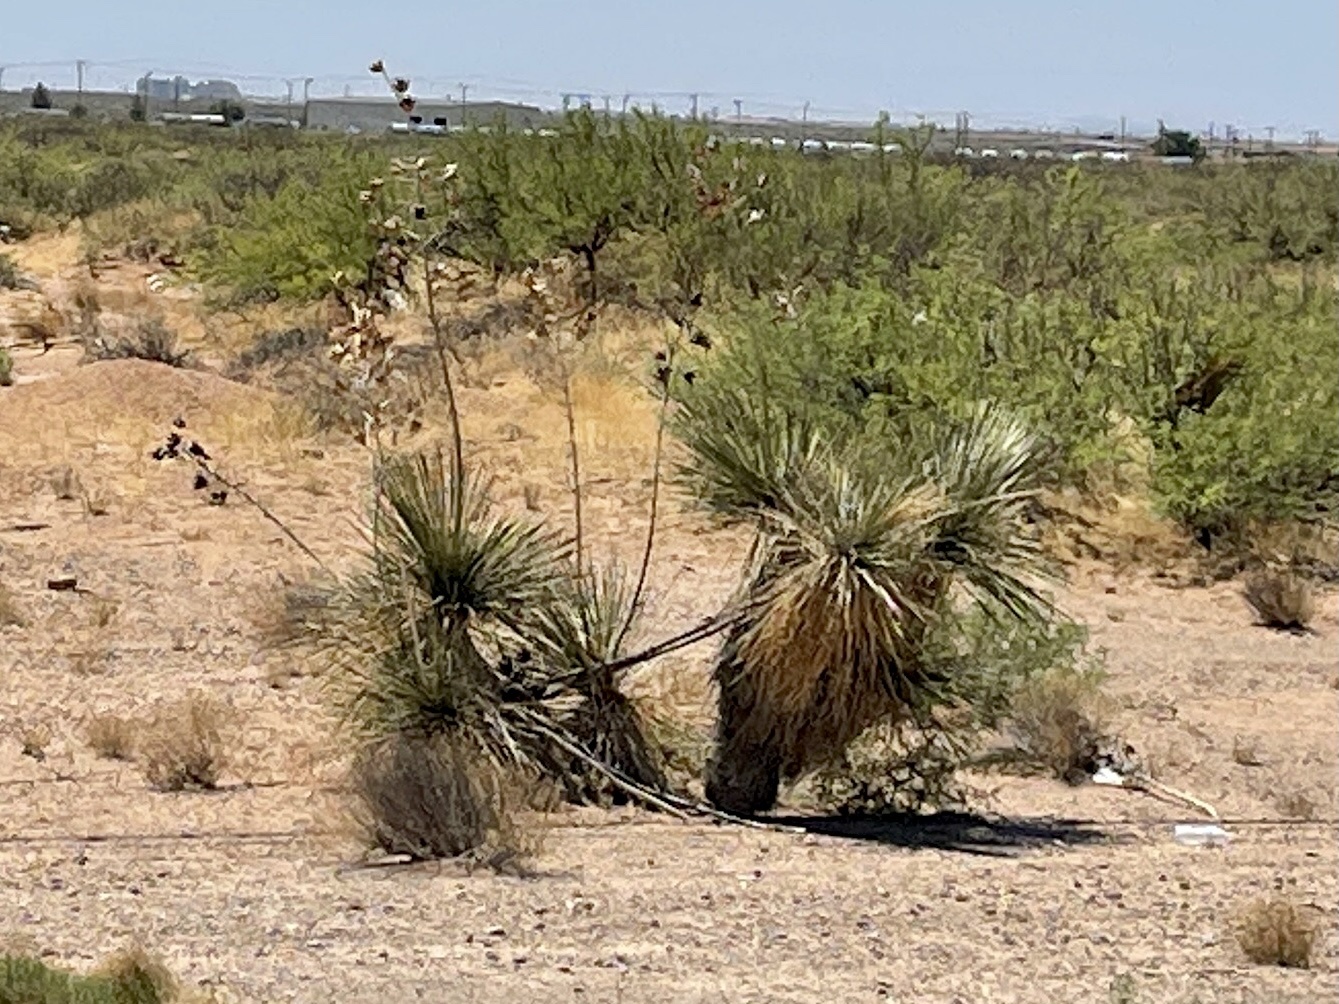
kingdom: Plantae
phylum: Tracheophyta
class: Liliopsida
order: Asparagales
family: Asparagaceae
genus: Yucca
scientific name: Yucca elata
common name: Palmella
